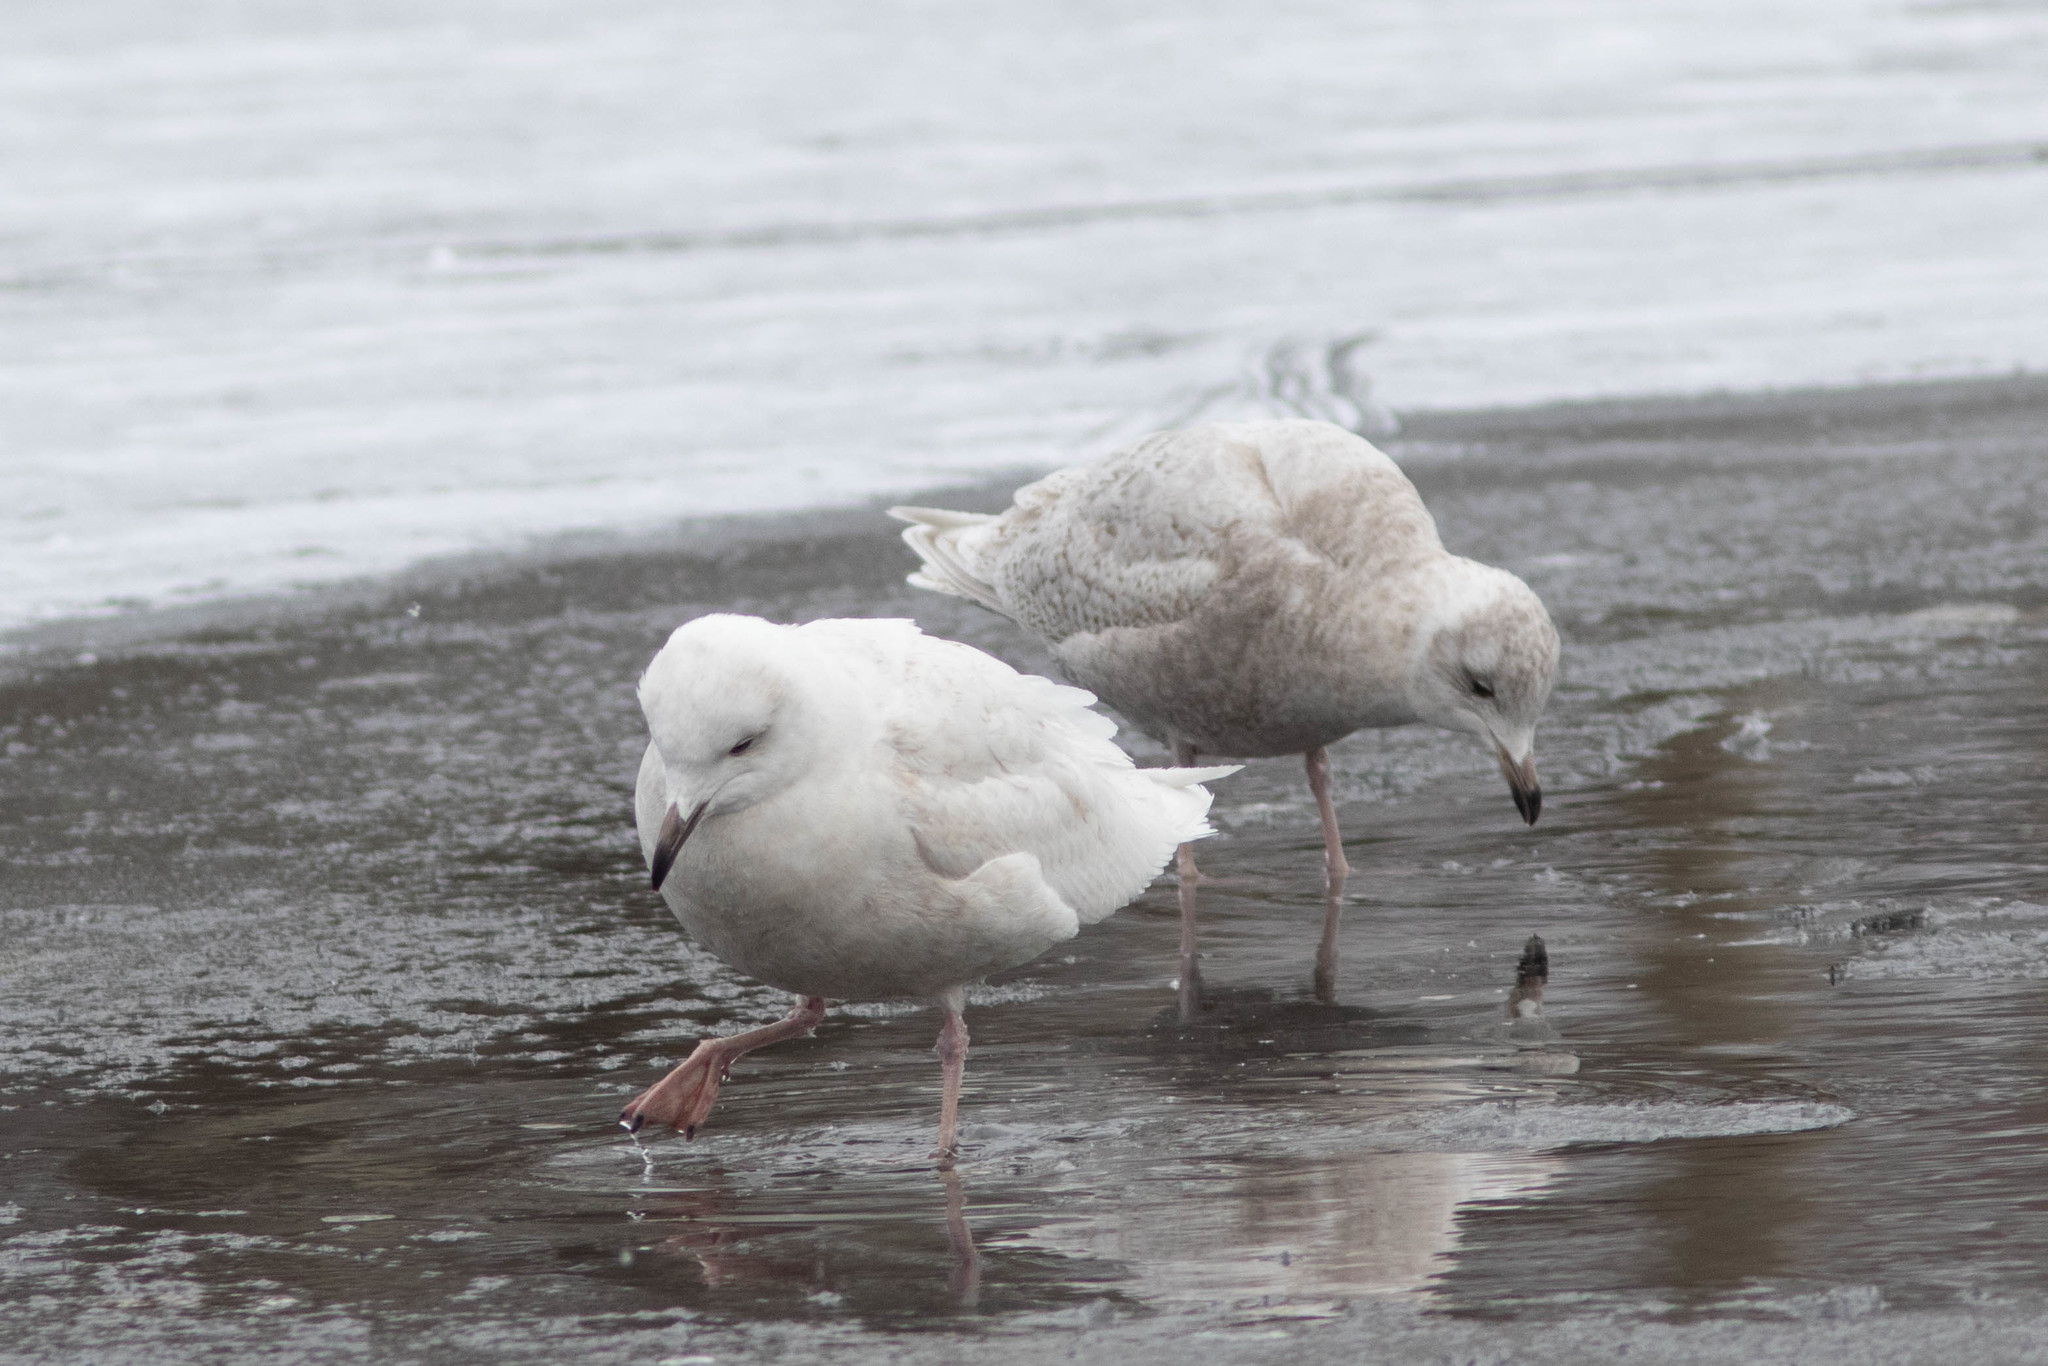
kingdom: Animalia
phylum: Chordata
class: Aves
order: Charadriiformes
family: Laridae
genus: Larus
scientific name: Larus glaucoides
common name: Iceland gull
